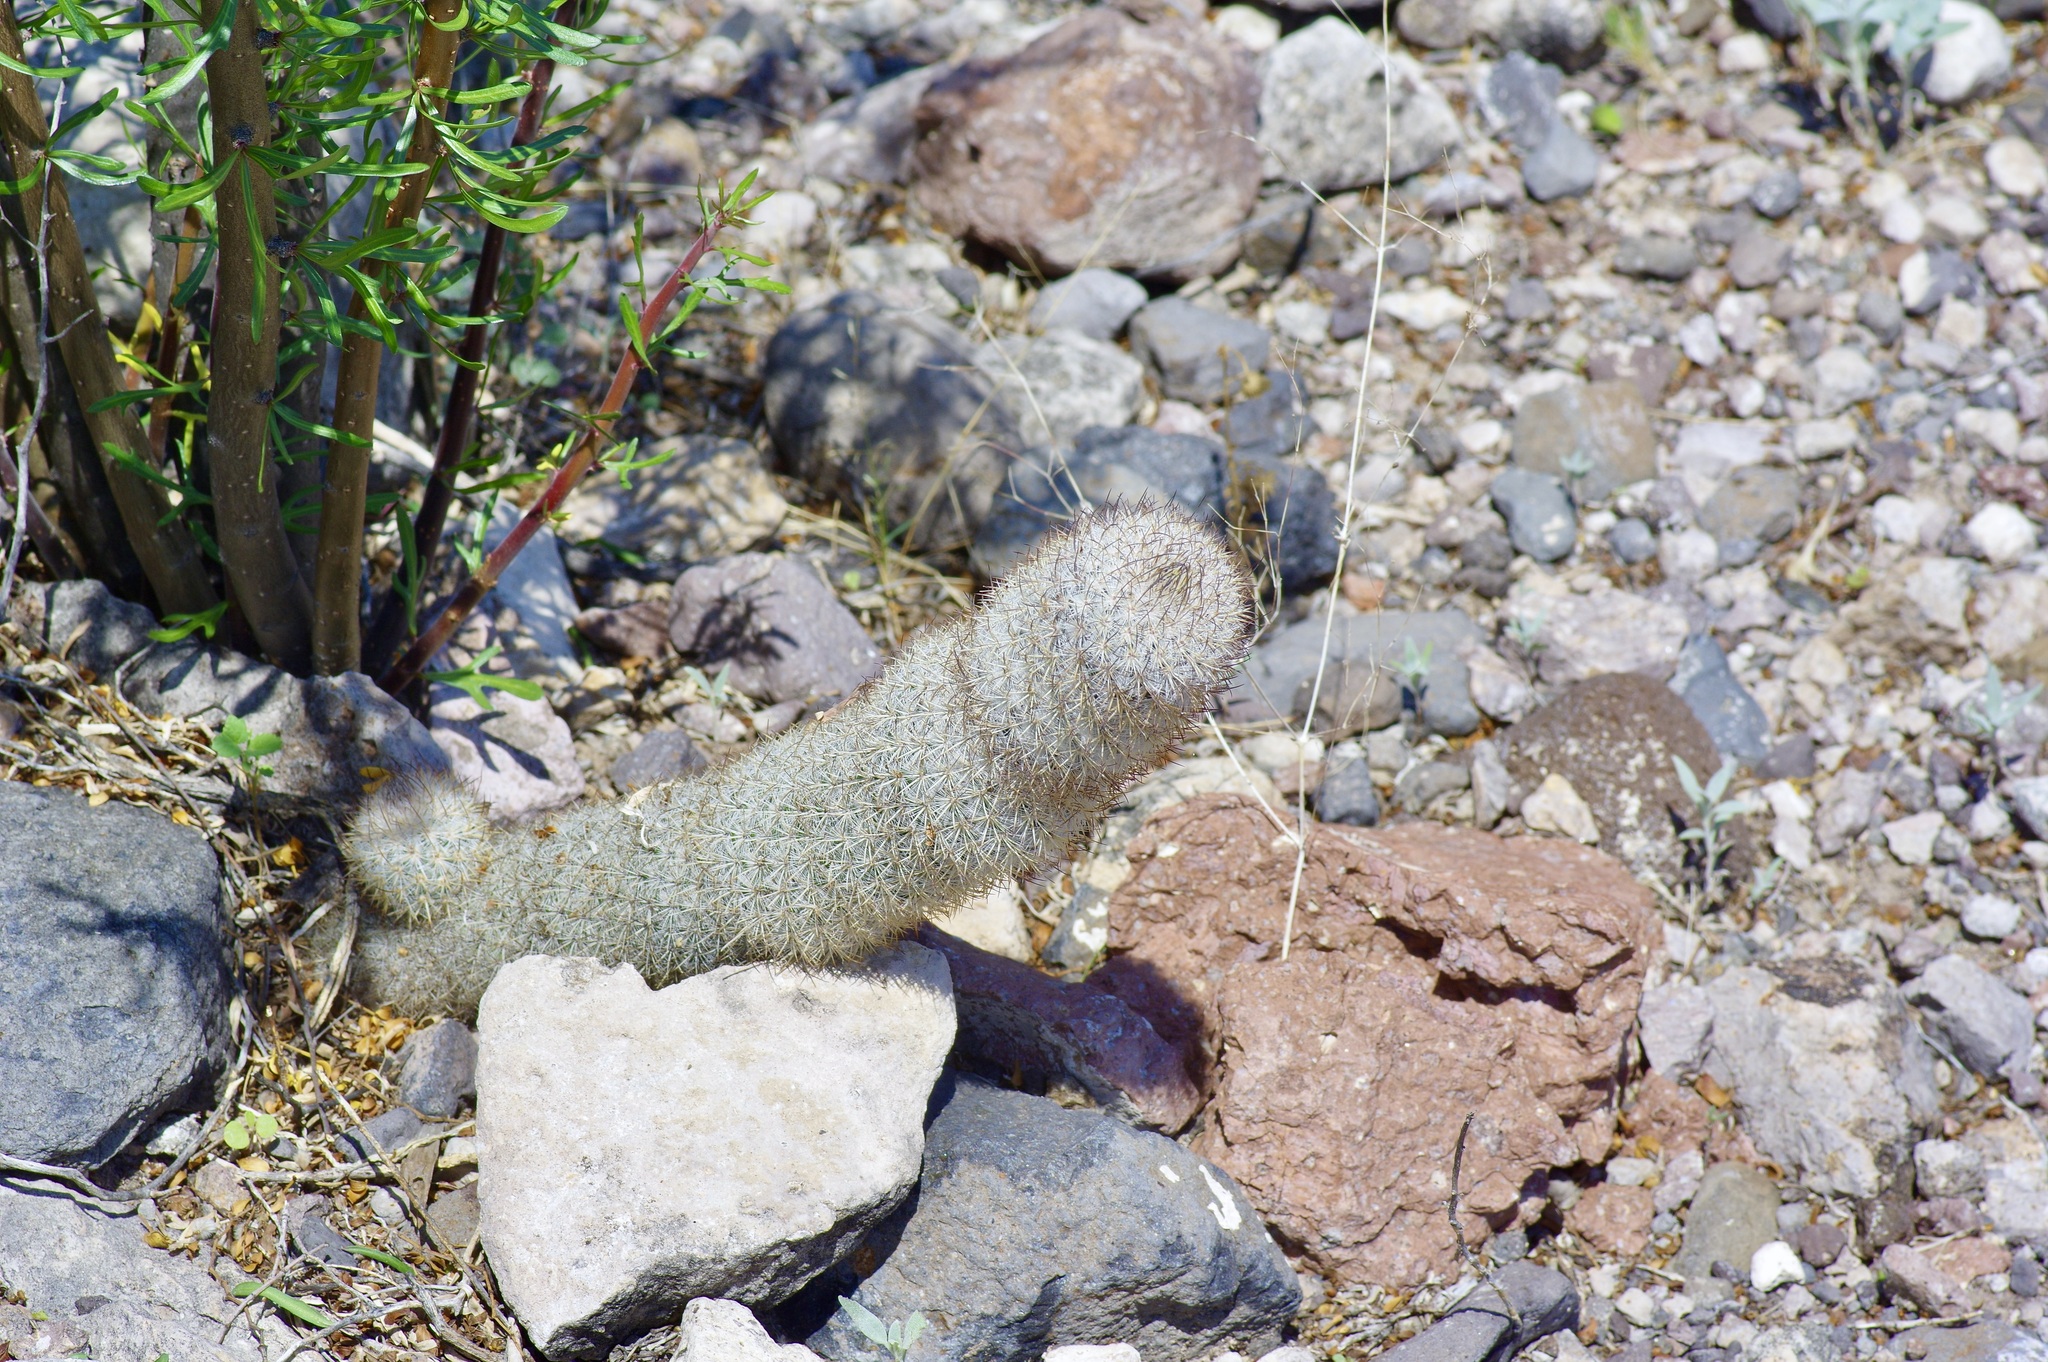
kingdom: Plantae
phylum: Tracheophyta
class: Magnoliopsida
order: Caryophyllales
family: Cactaceae
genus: Mammillaria
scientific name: Mammillaria pottsii
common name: Pott's nipple-cactus
